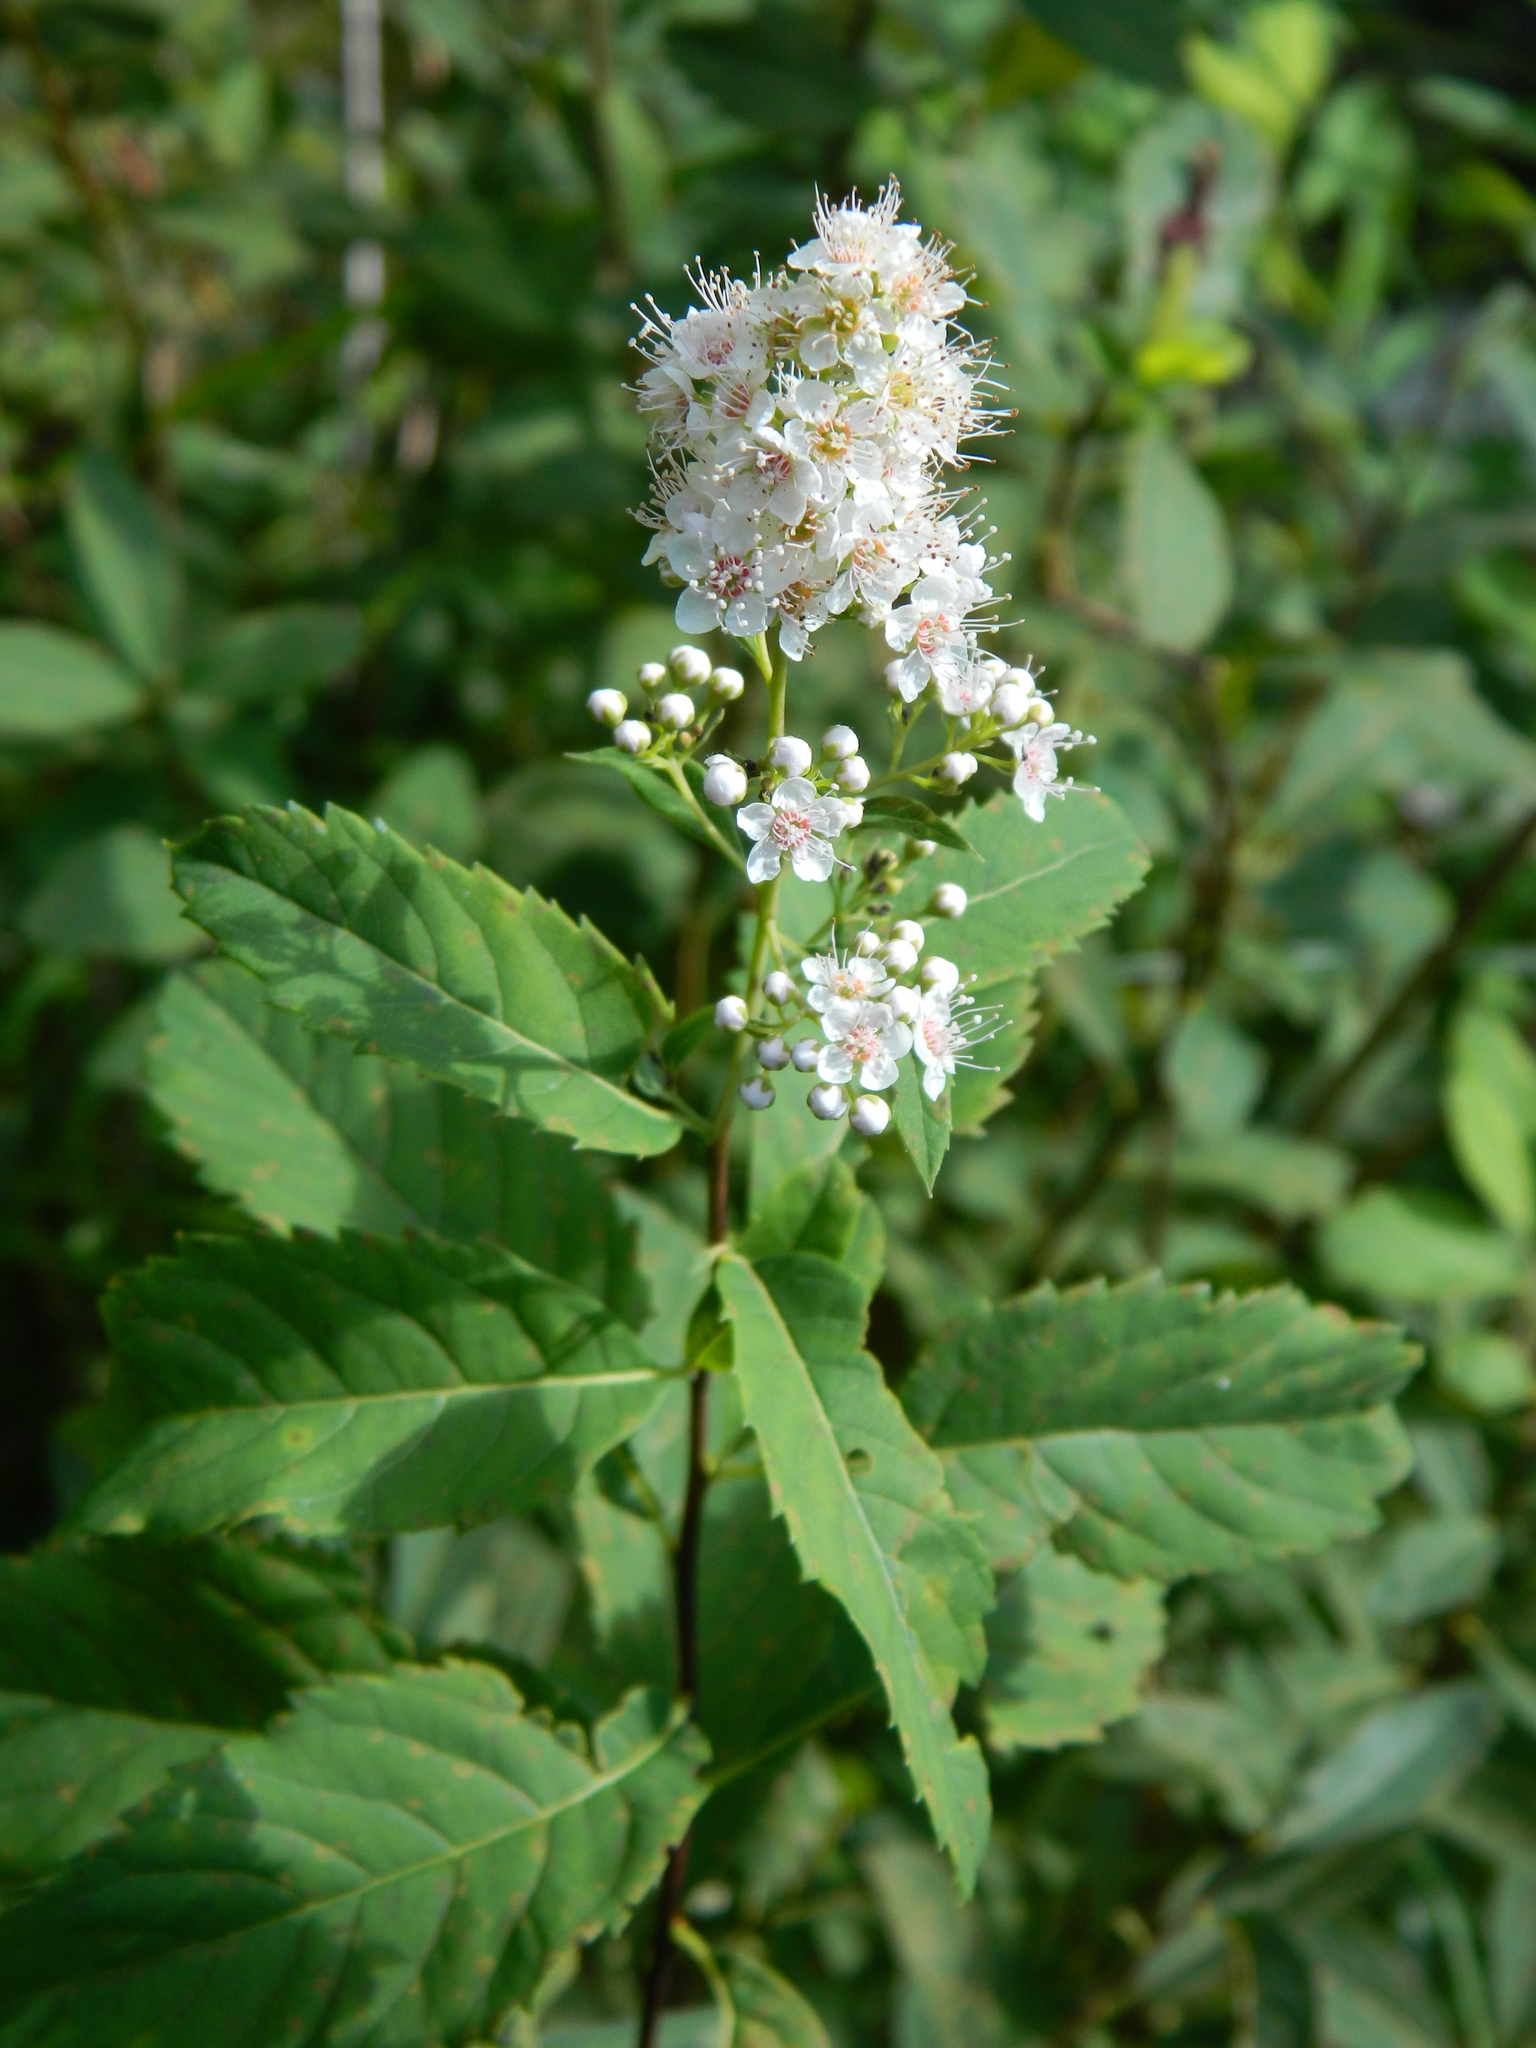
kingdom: Plantae
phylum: Tracheophyta
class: Magnoliopsida
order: Rosales
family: Rosaceae
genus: Spiraea
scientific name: Spiraea alba
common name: Pale bridewort
